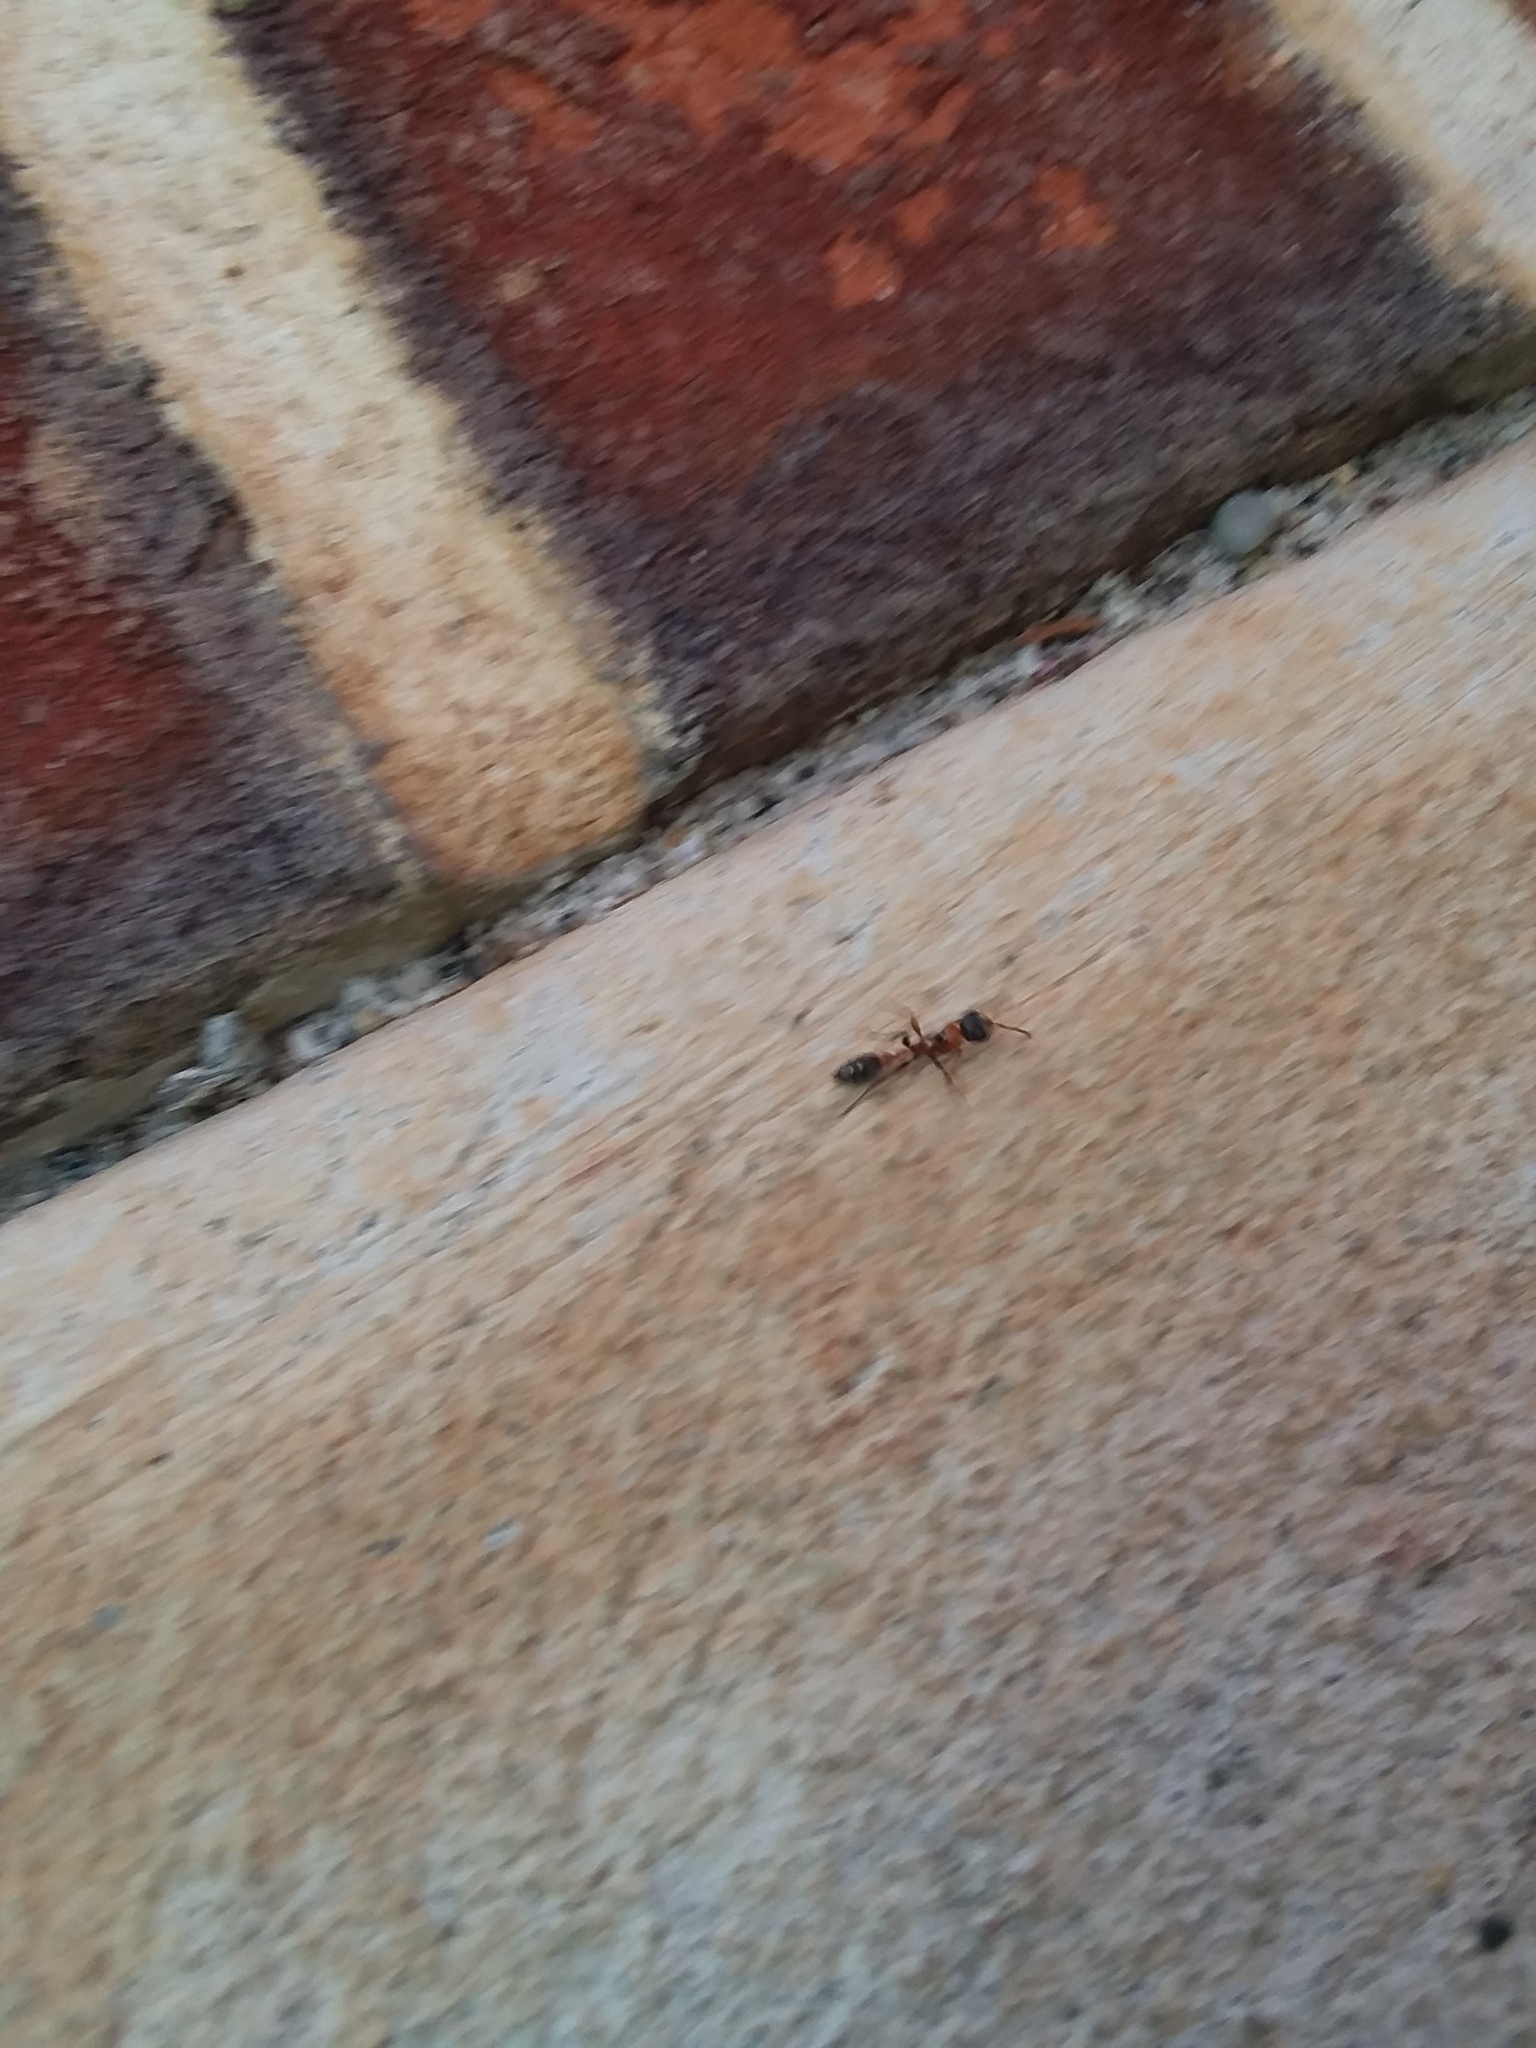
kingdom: Animalia
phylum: Arthropoda
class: Insecta
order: Hymenoptera
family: Formicidae
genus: Pseudomyrmex
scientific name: Pseudomyrmex gracilis
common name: Graceful twig ant
